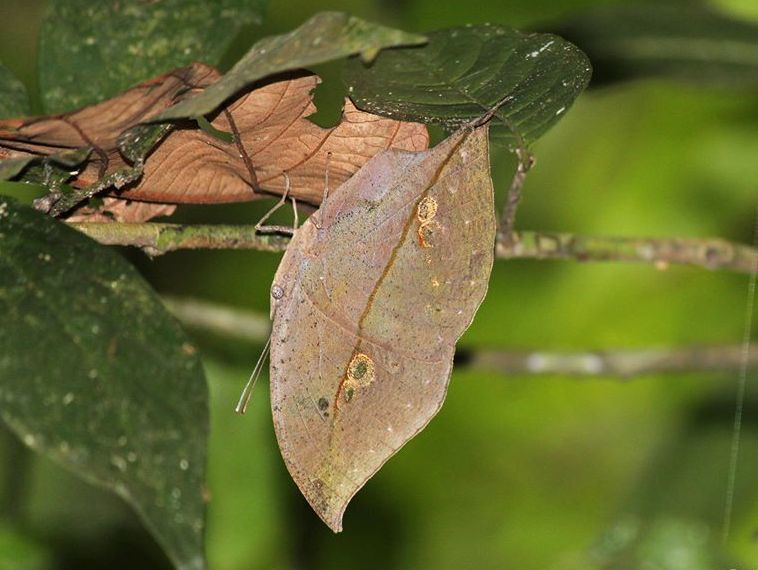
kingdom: Animalia
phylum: Arthropoda
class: Insecta
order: Lepidoptera
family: Nymphalidae
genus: Kallima
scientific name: Kallima horsfieldii
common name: Sahyadri blue oakleaf
